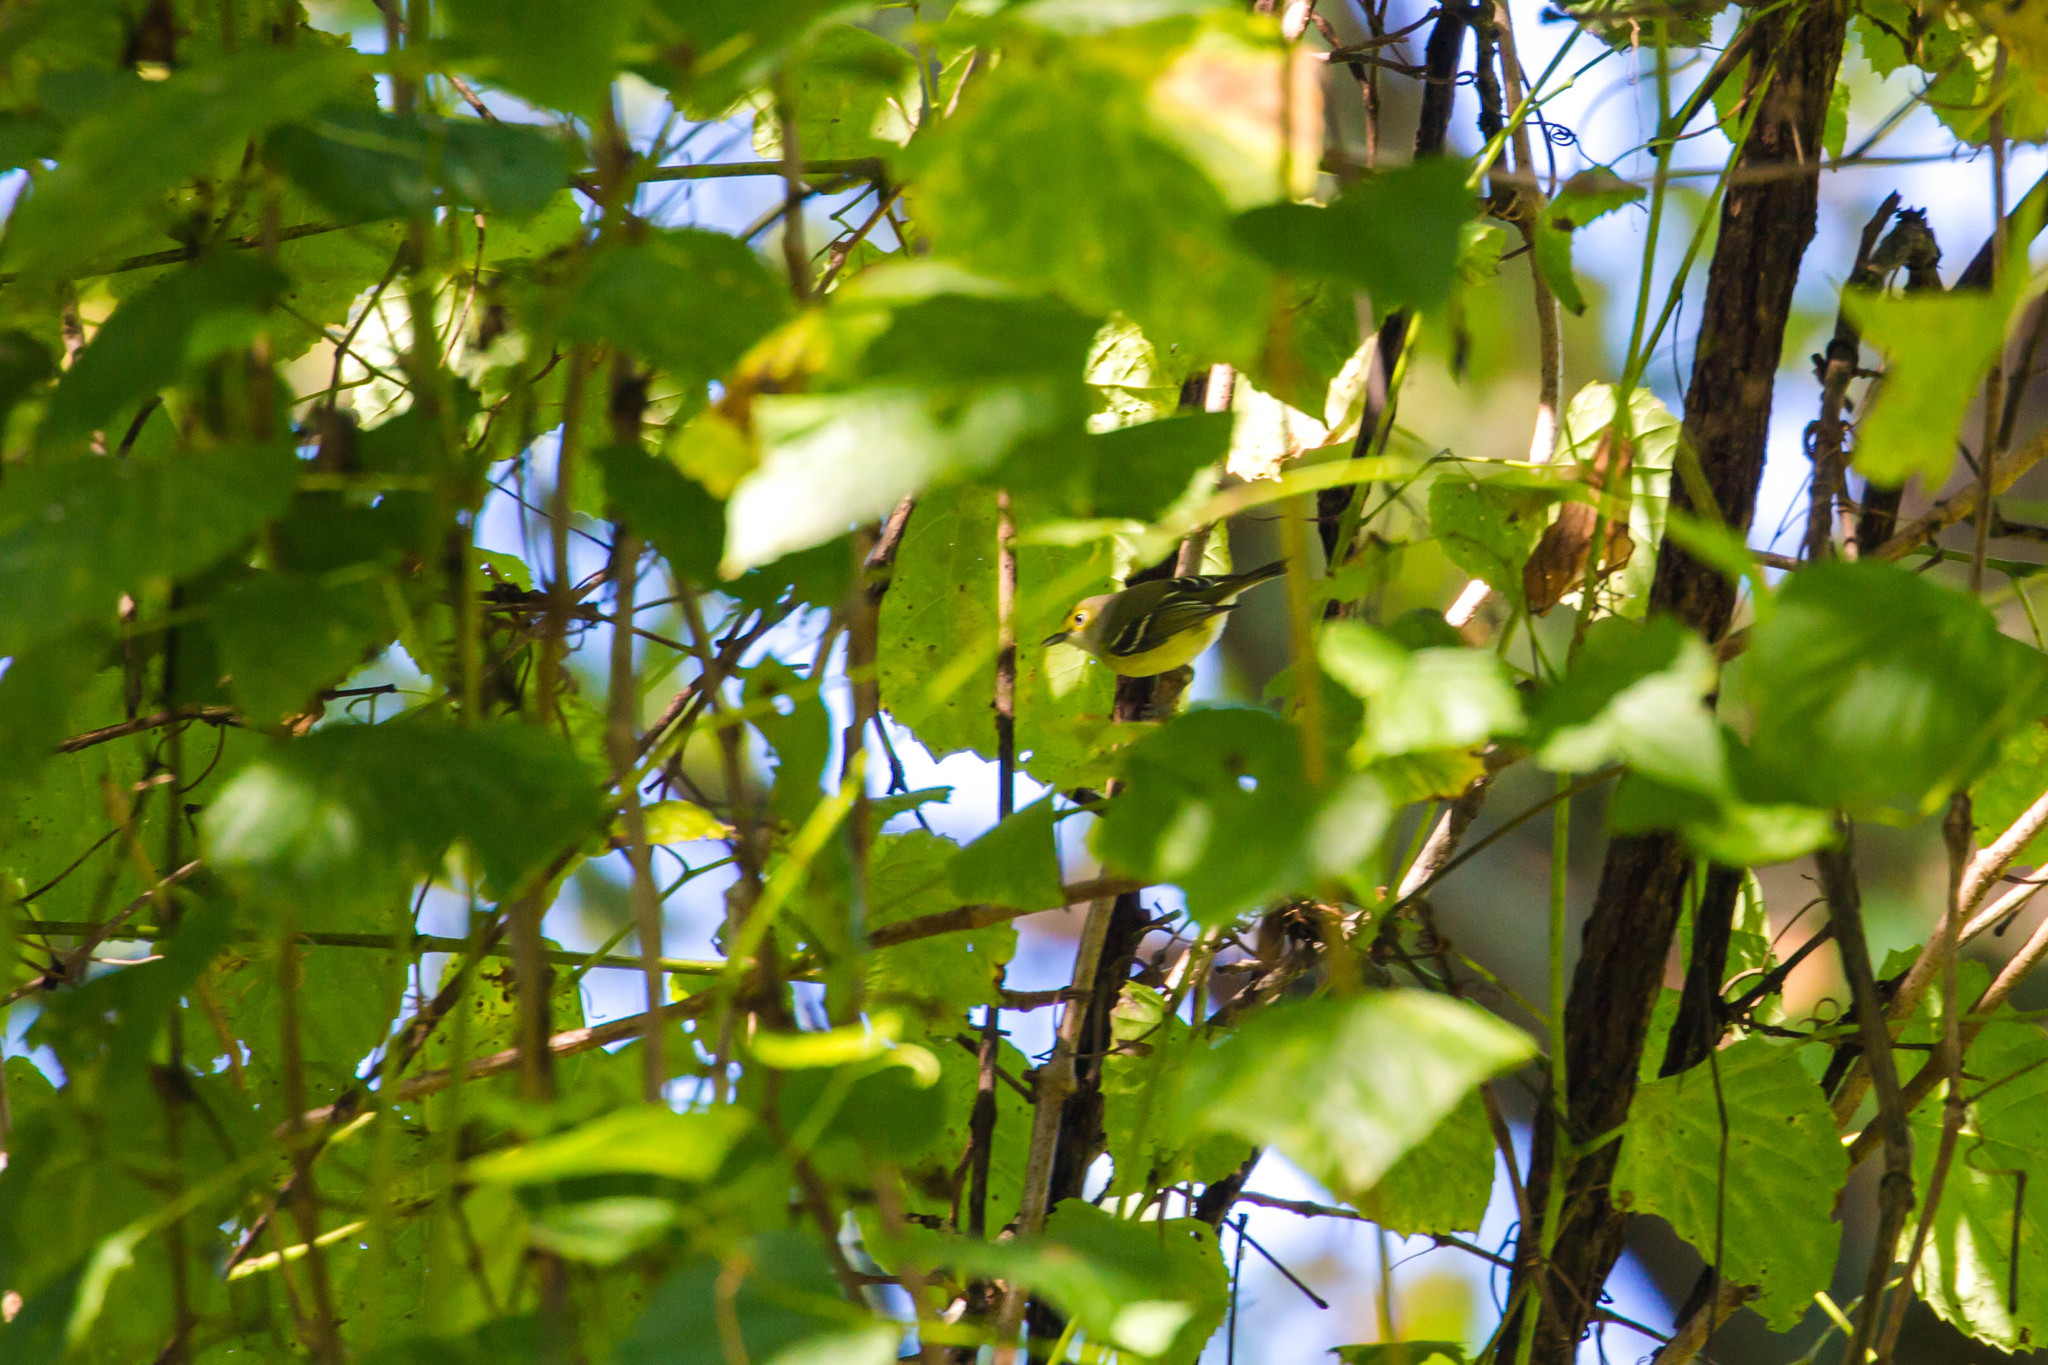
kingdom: Animalia
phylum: Chordata
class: Aves
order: Passeriformes
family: Vireonidae
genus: Vireo
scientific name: Vireo griseus
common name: White-eyed vireo
